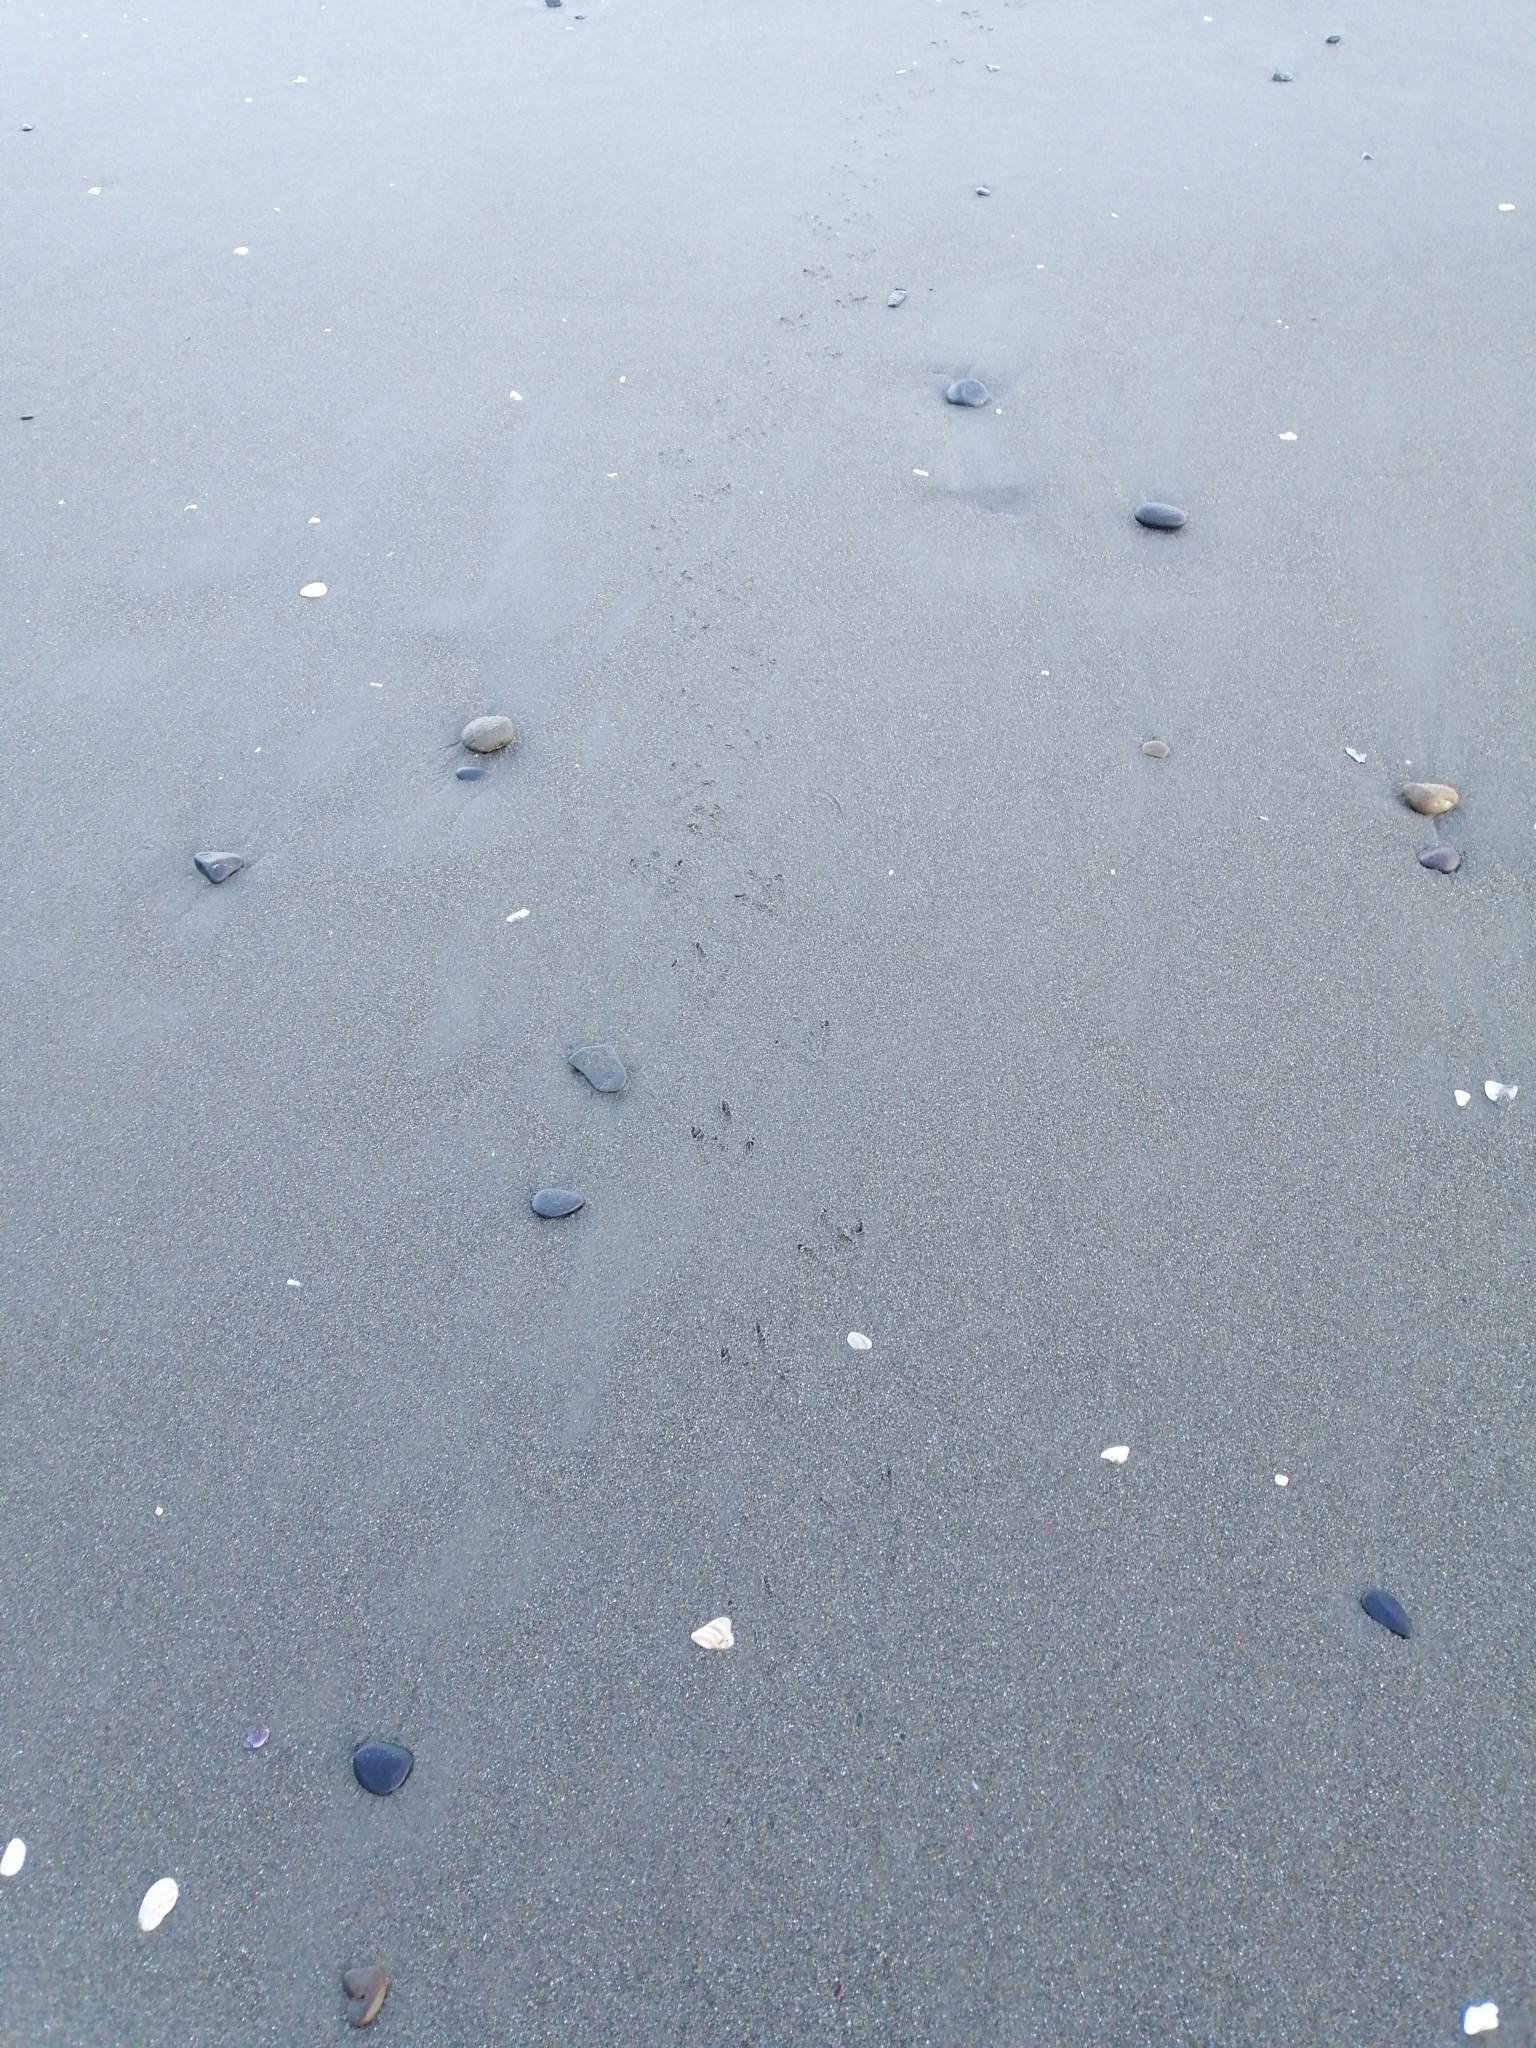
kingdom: Animalia
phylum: Chordata
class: Aves
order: Sphenisciformes
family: Spheniscidae
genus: Eudyptula
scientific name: Eudyptula minor
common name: Little penguin
